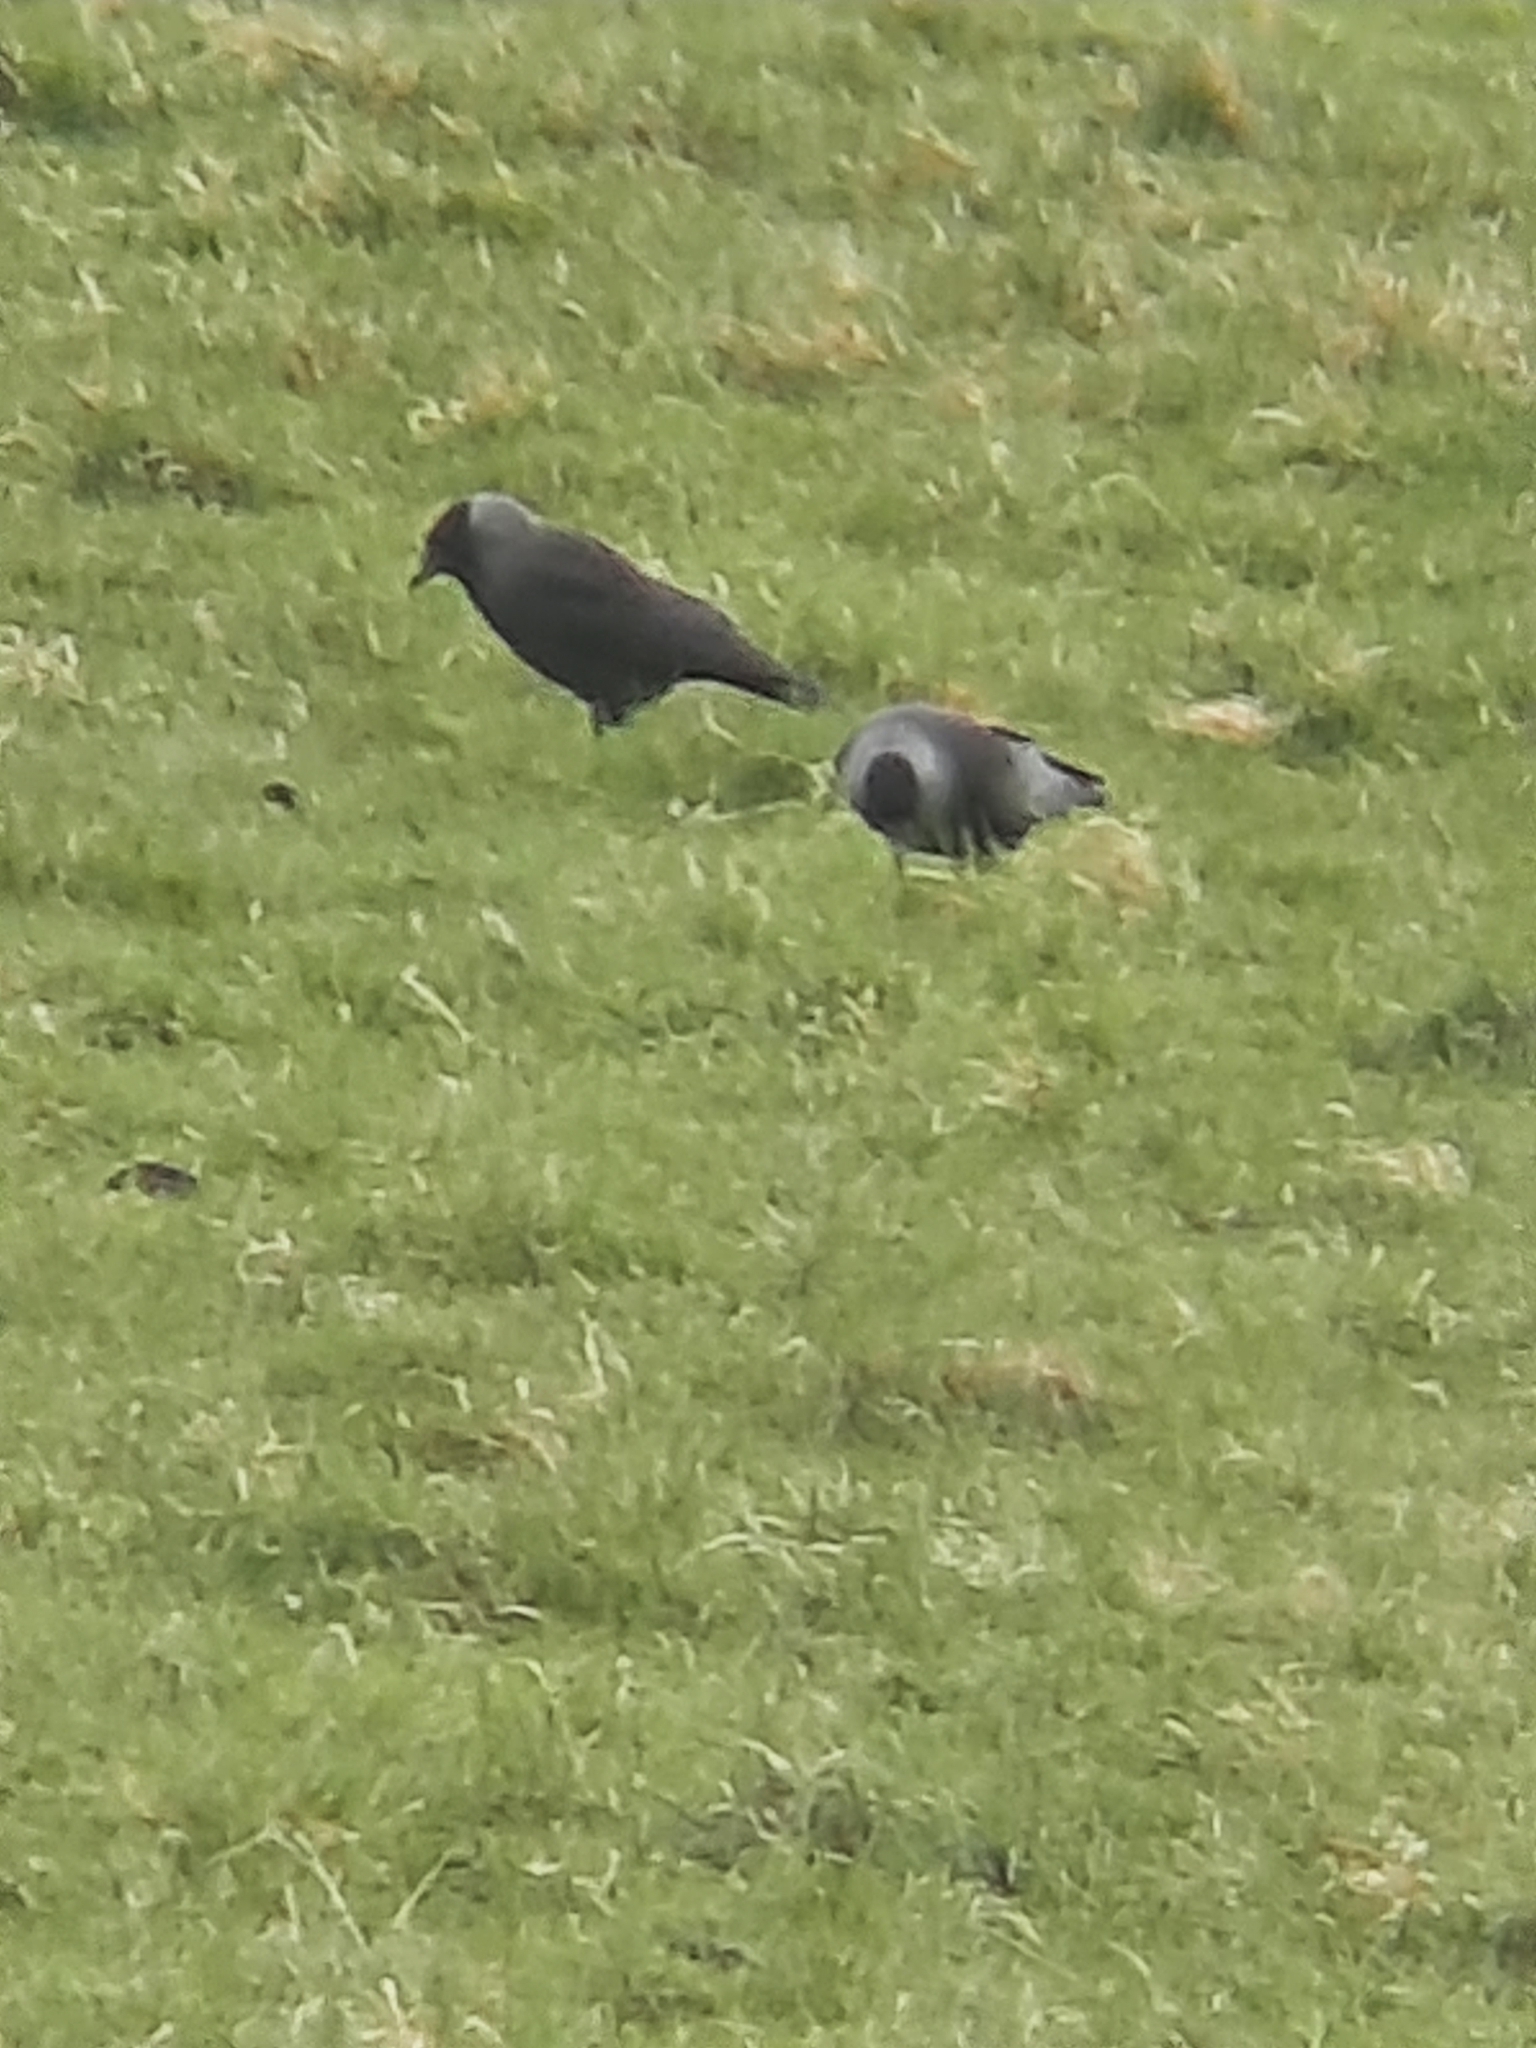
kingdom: Animalia
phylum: Chordata
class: Aves
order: Passeriformes
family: Corvidae
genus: Coloeus
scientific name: Coloeus monedula
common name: Western jackdaw
